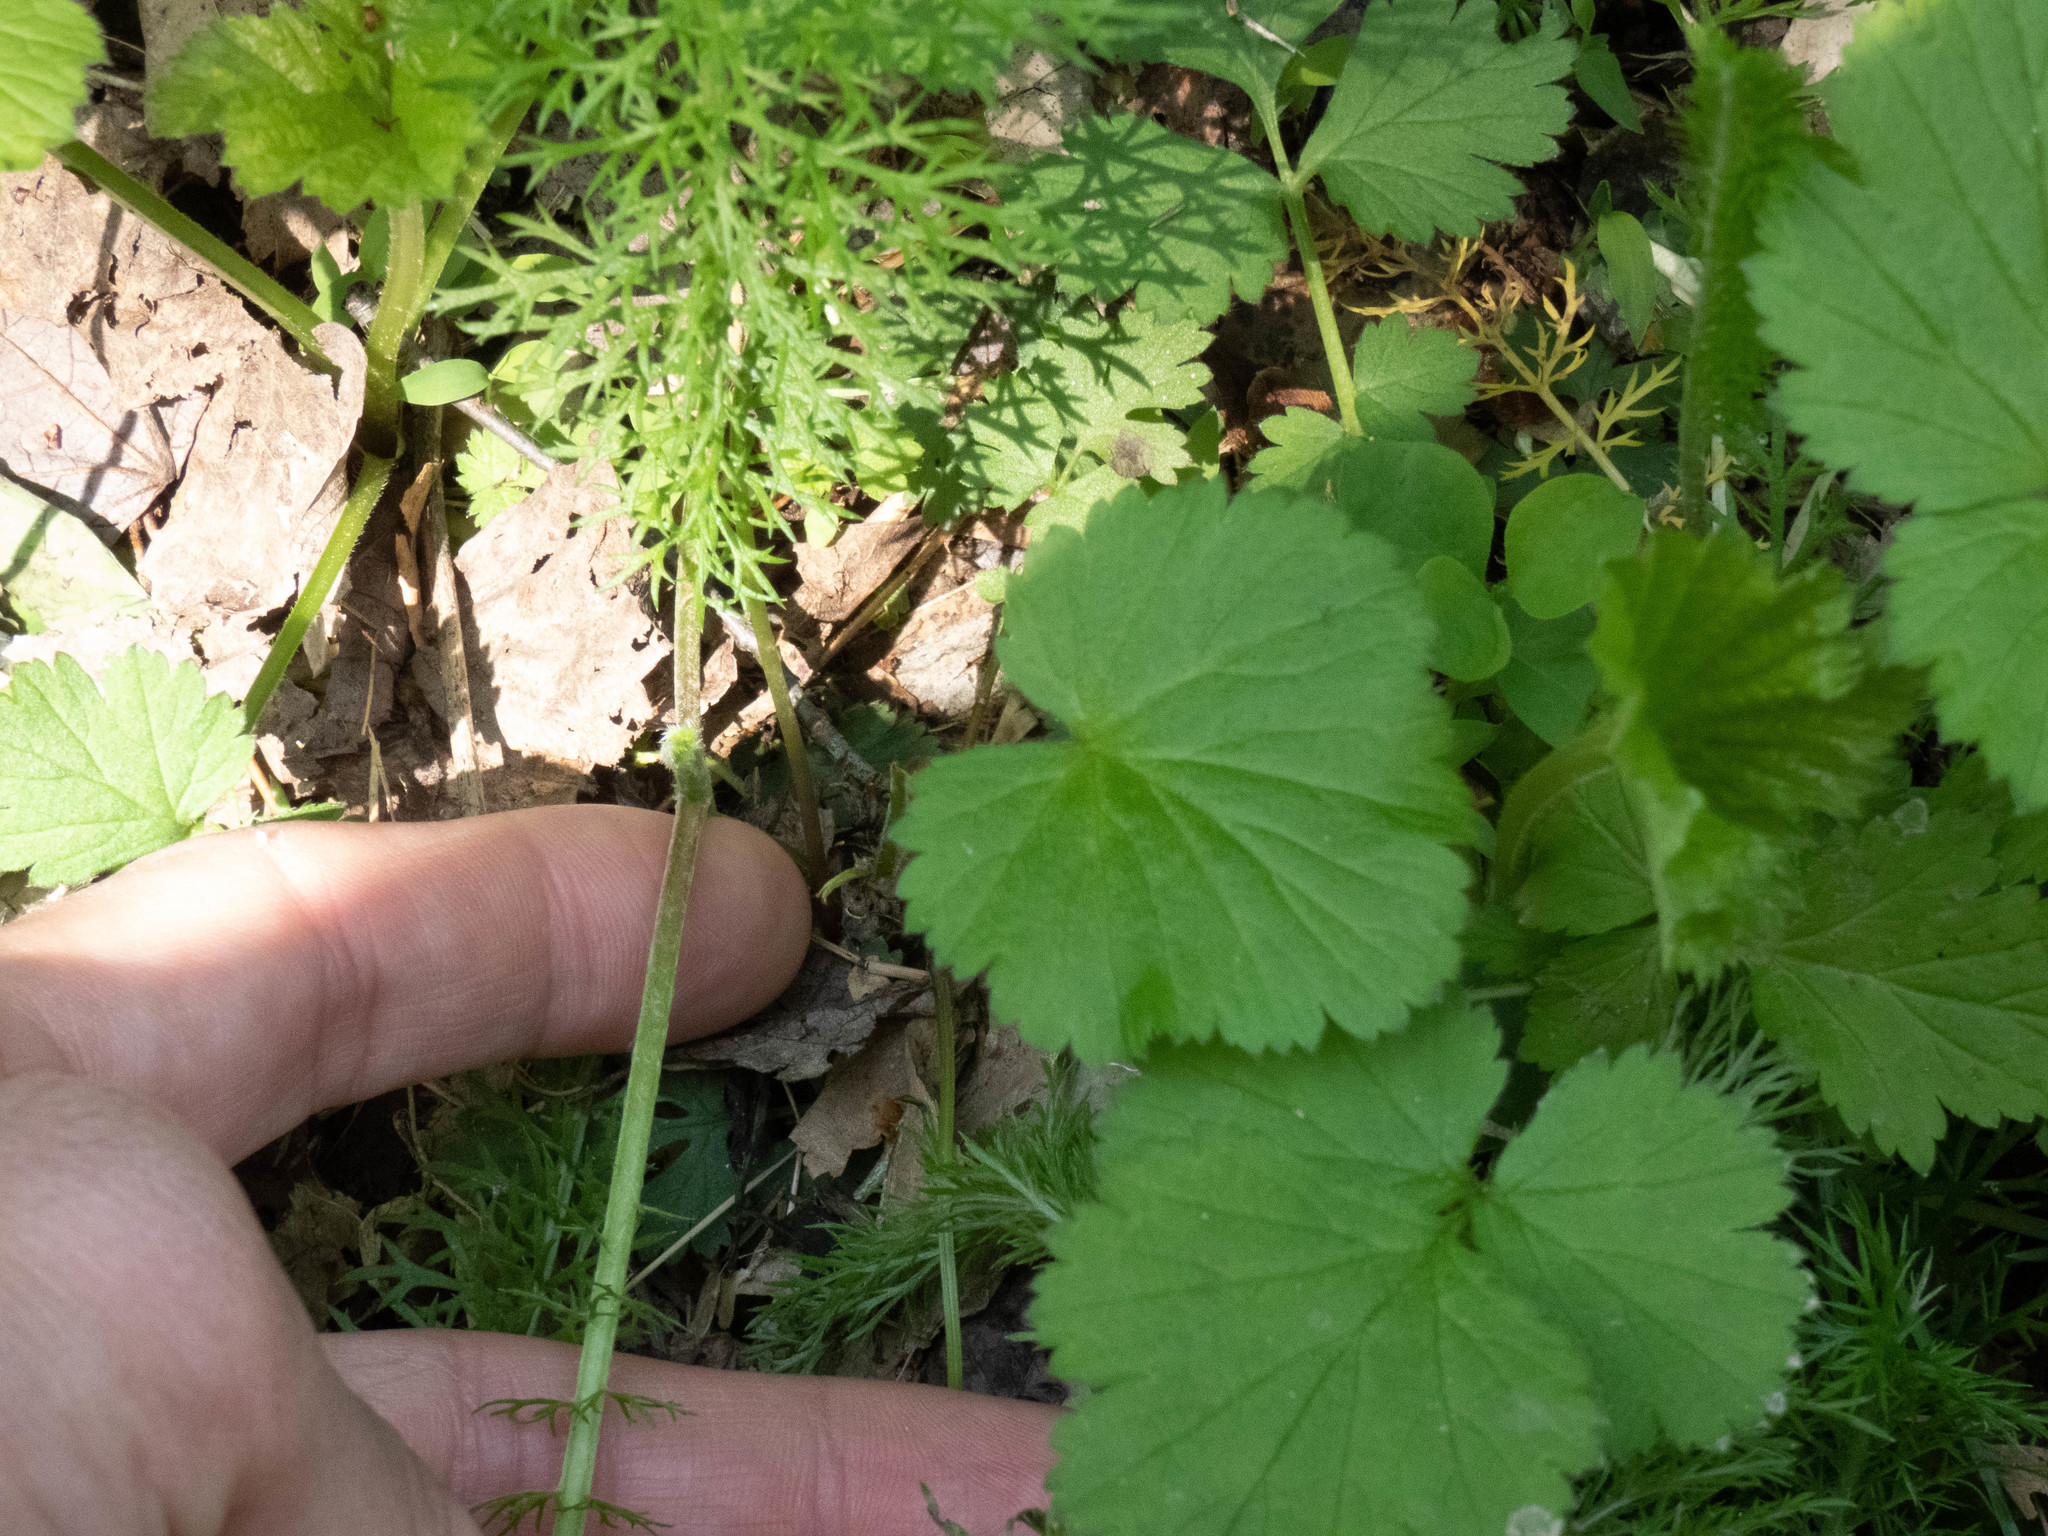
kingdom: Plantae
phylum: Tracheophyta
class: Magnoliopsida
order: Asterales
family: Asteraceae
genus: Achillea
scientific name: Achillea millefolium
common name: Yarrow
